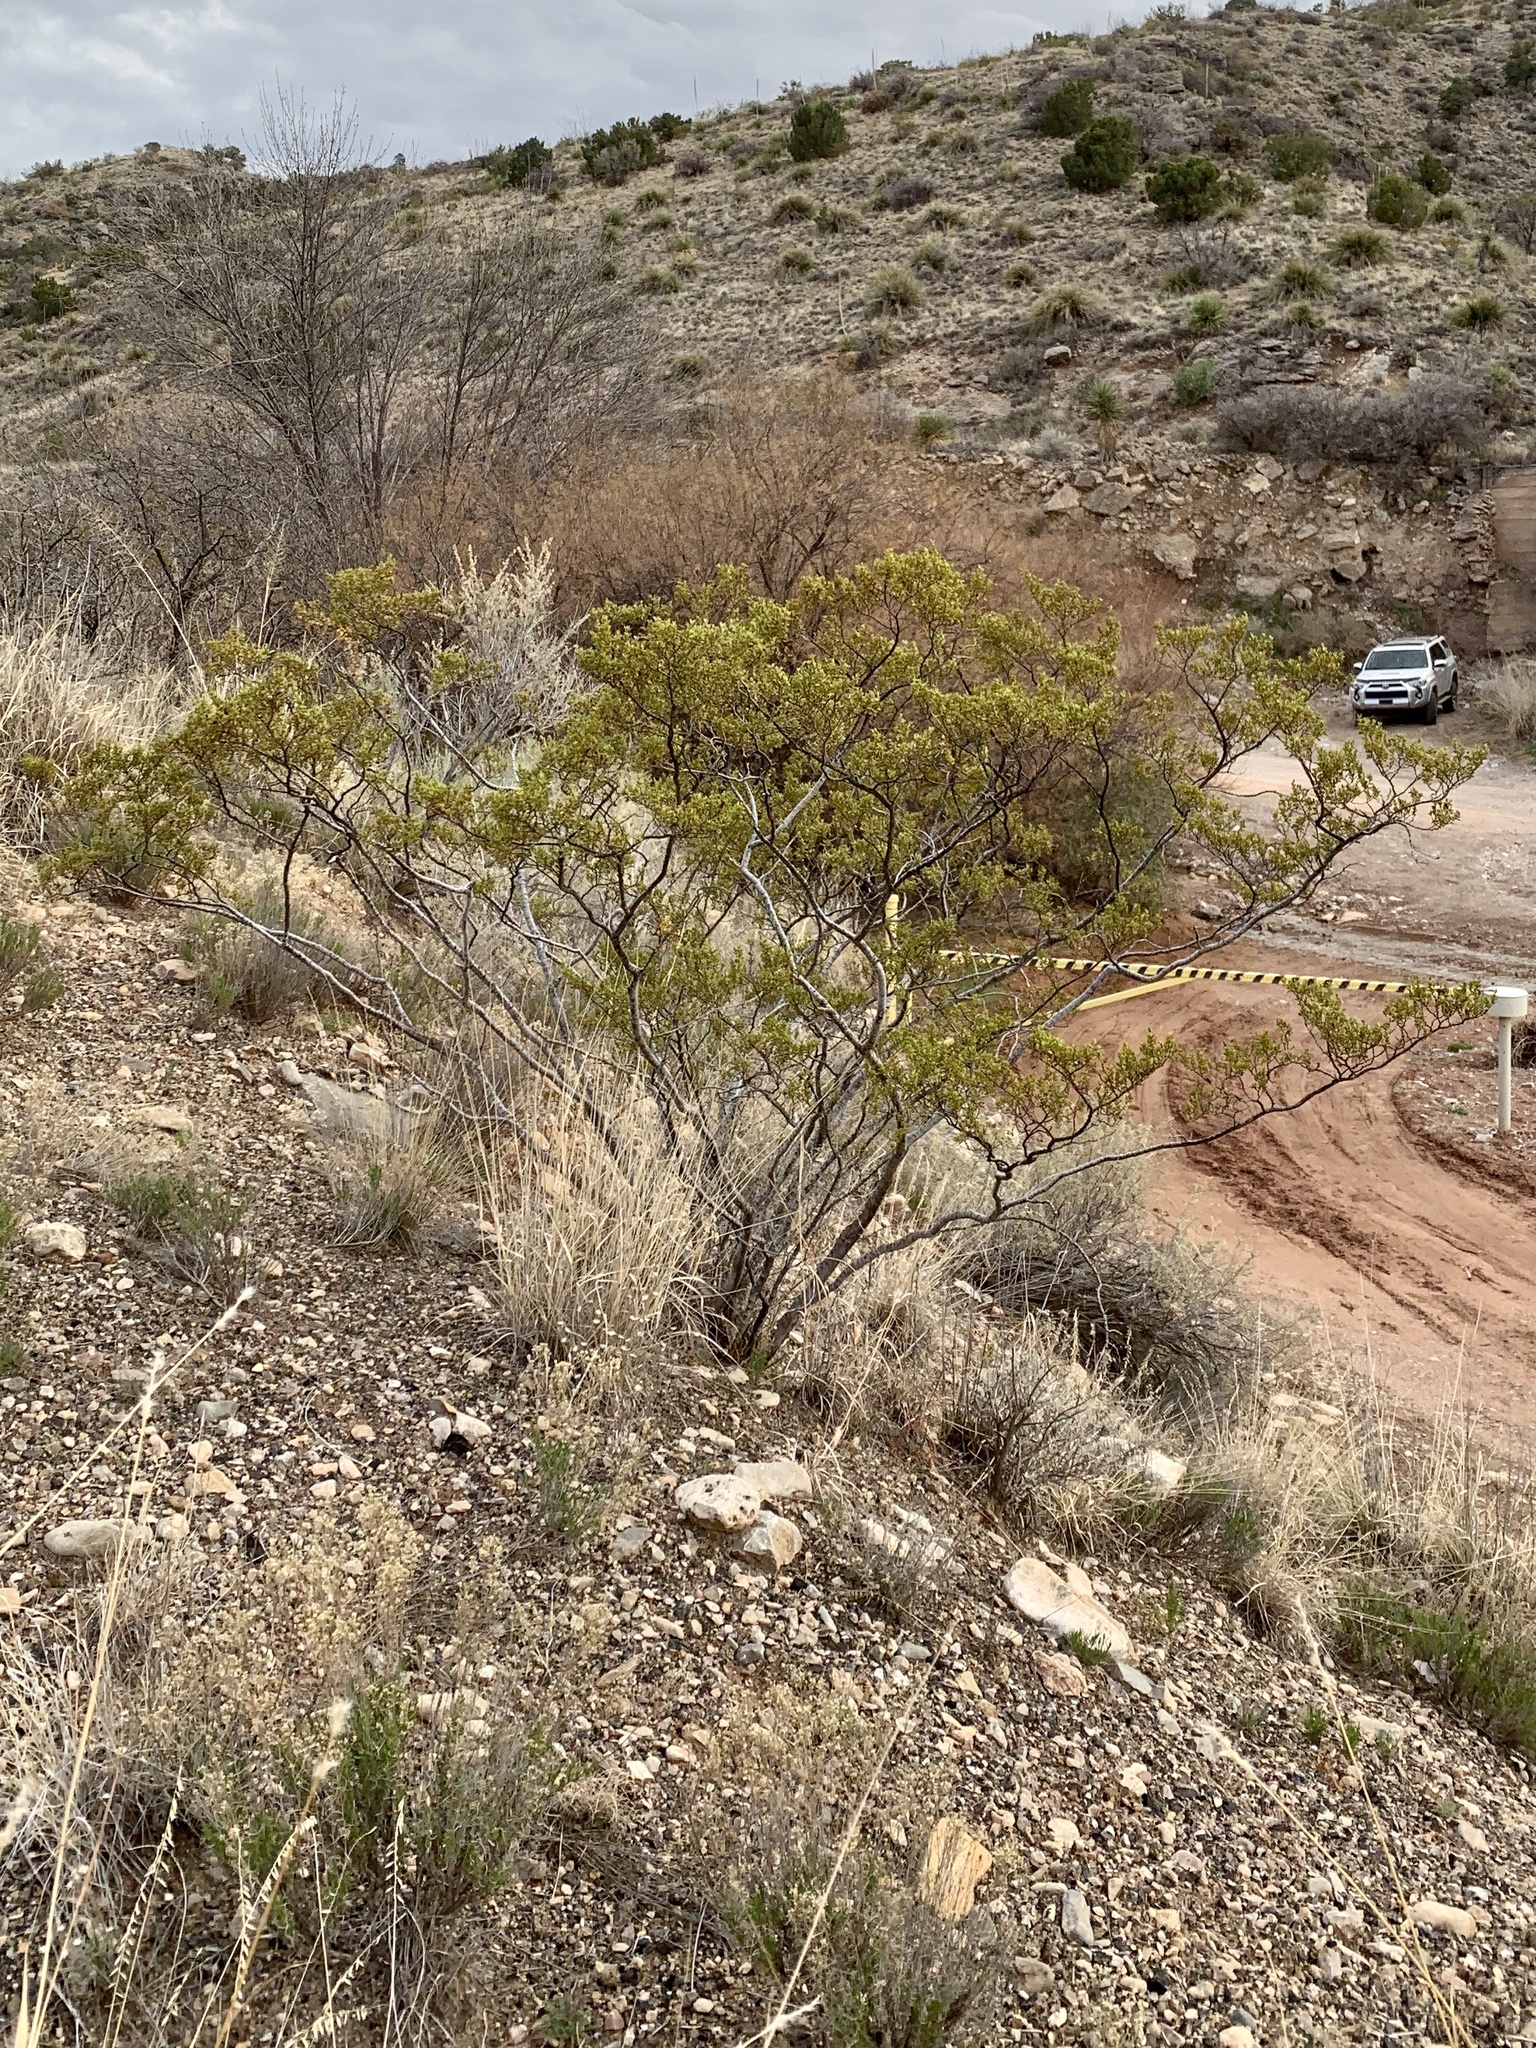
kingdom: Plantae
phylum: Tracheophyta
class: Magnoliopsida
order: Zygophyllales
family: Zygophyllaceae
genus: Larrea
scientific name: Larrea tridentata
